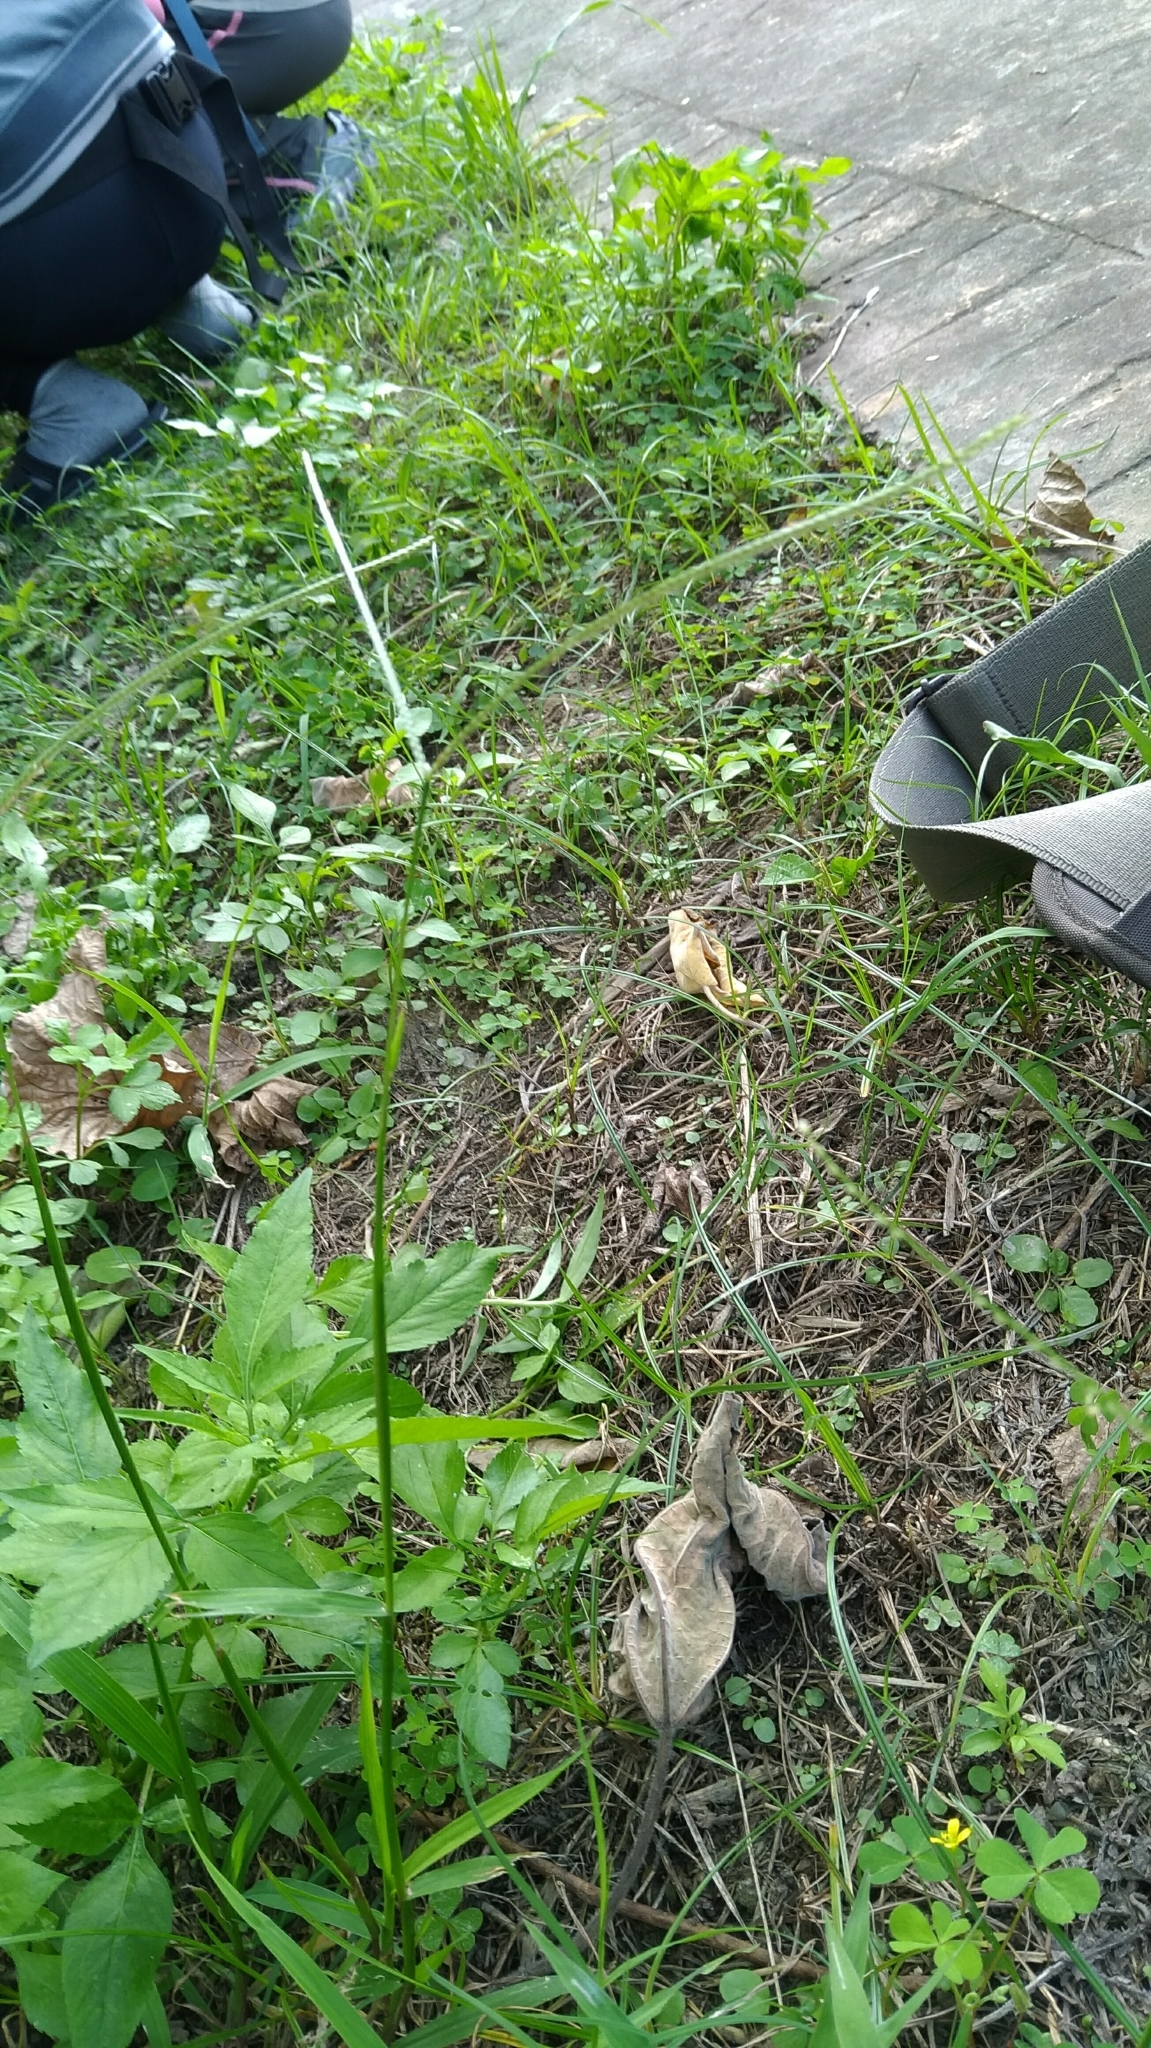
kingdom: Plantae
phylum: Tracheophyta
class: Liliopsida
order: Poales
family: Poaceae
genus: Paspalum
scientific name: Paspalum conjugatum
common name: Hilograss
